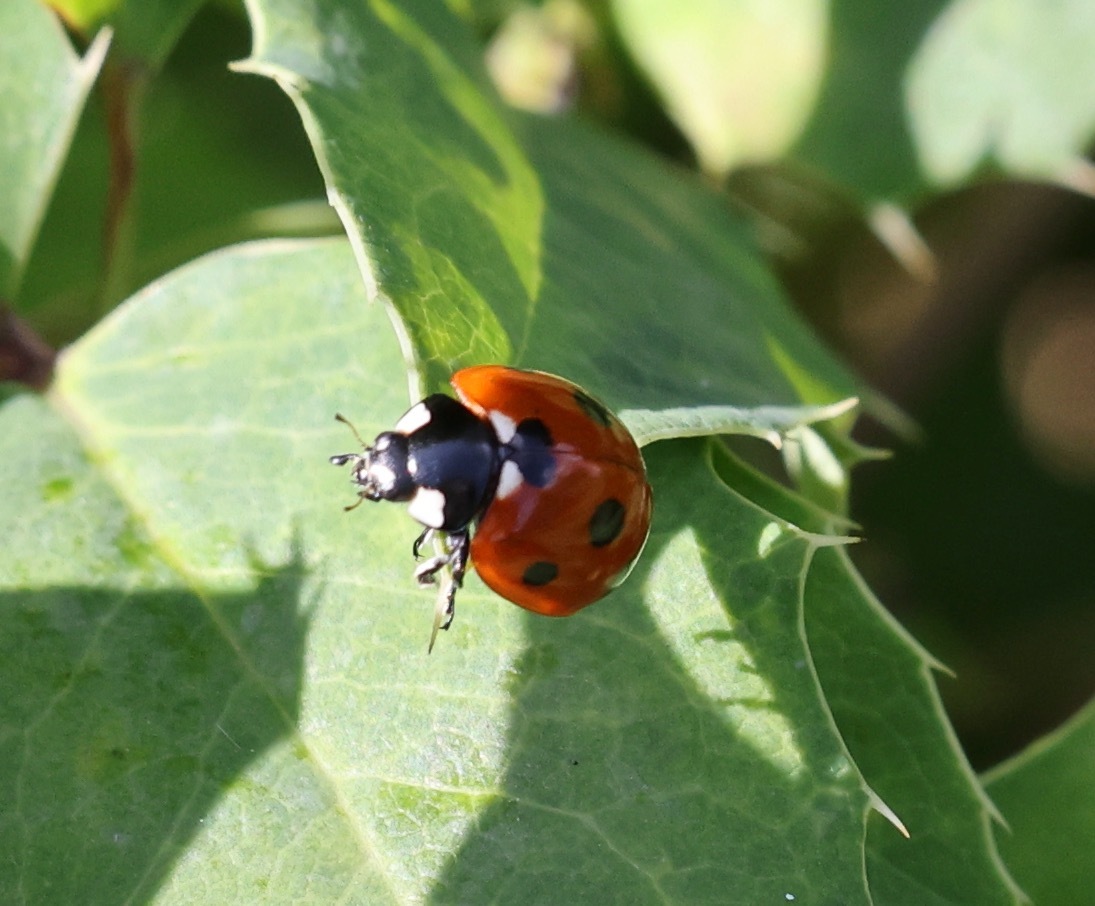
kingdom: Animalia
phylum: Arthropoda
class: Insecta
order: Coleoptera
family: Coccinellidae
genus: Coccinella
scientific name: Coccinella septempunctata
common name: Sevenspotted lady beetle
